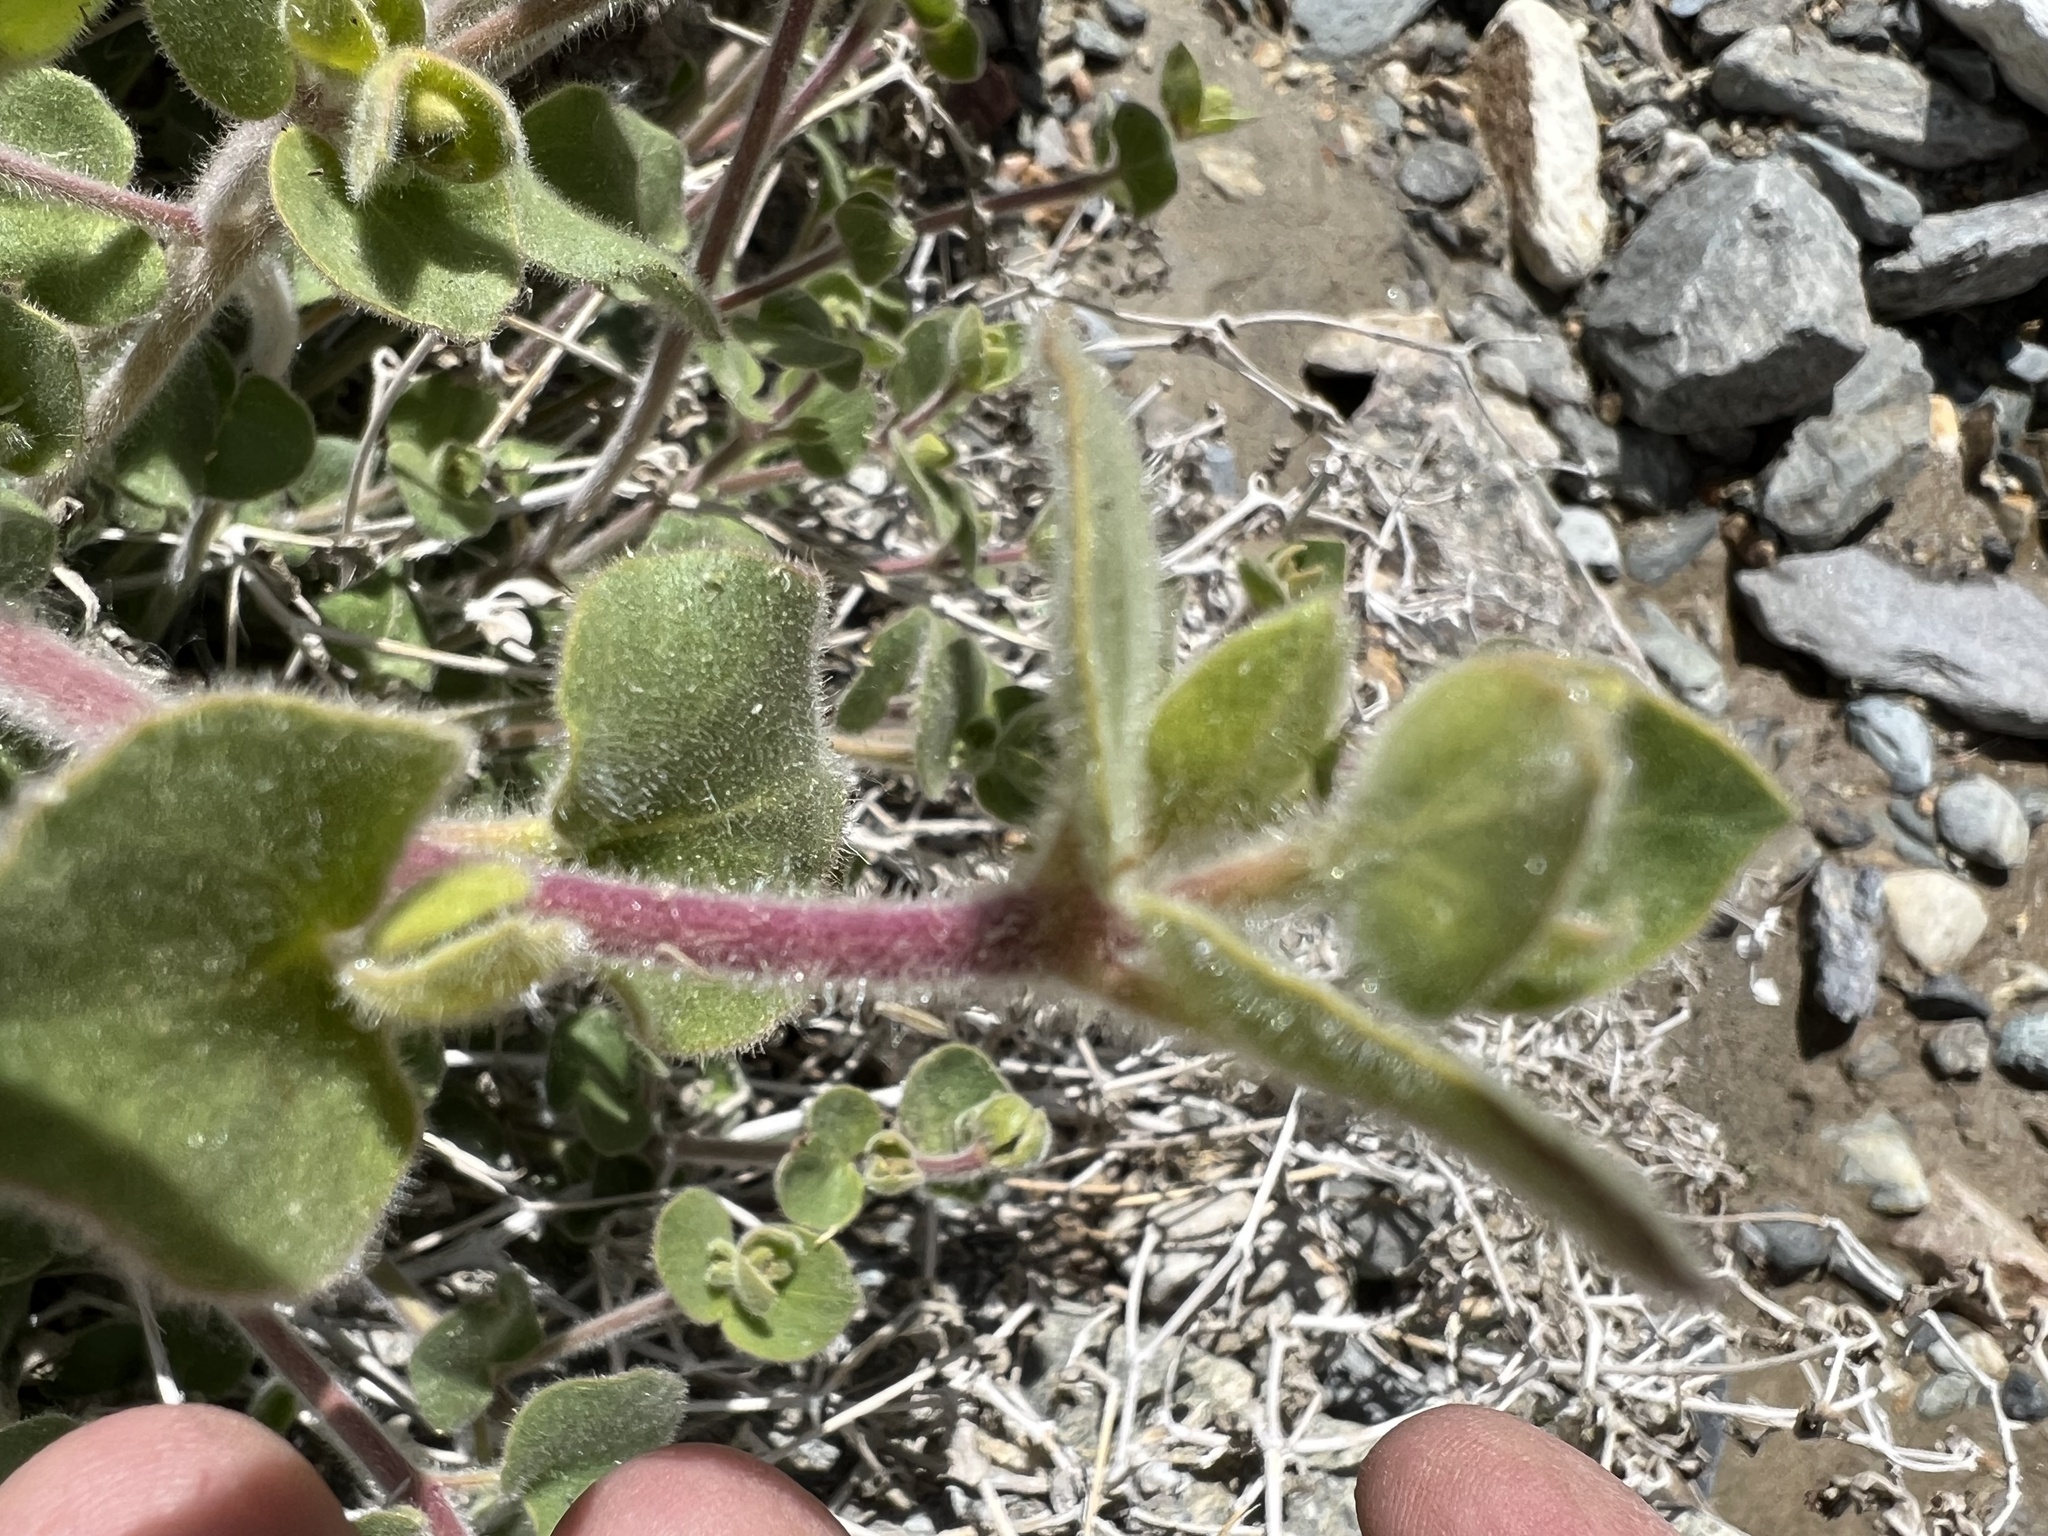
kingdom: Plantae
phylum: Tracheophyta
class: Magnoliopsida
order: Caryophyllales
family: Nyctaginaceae
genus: Mirabilis
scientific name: Mirabilis laevis
